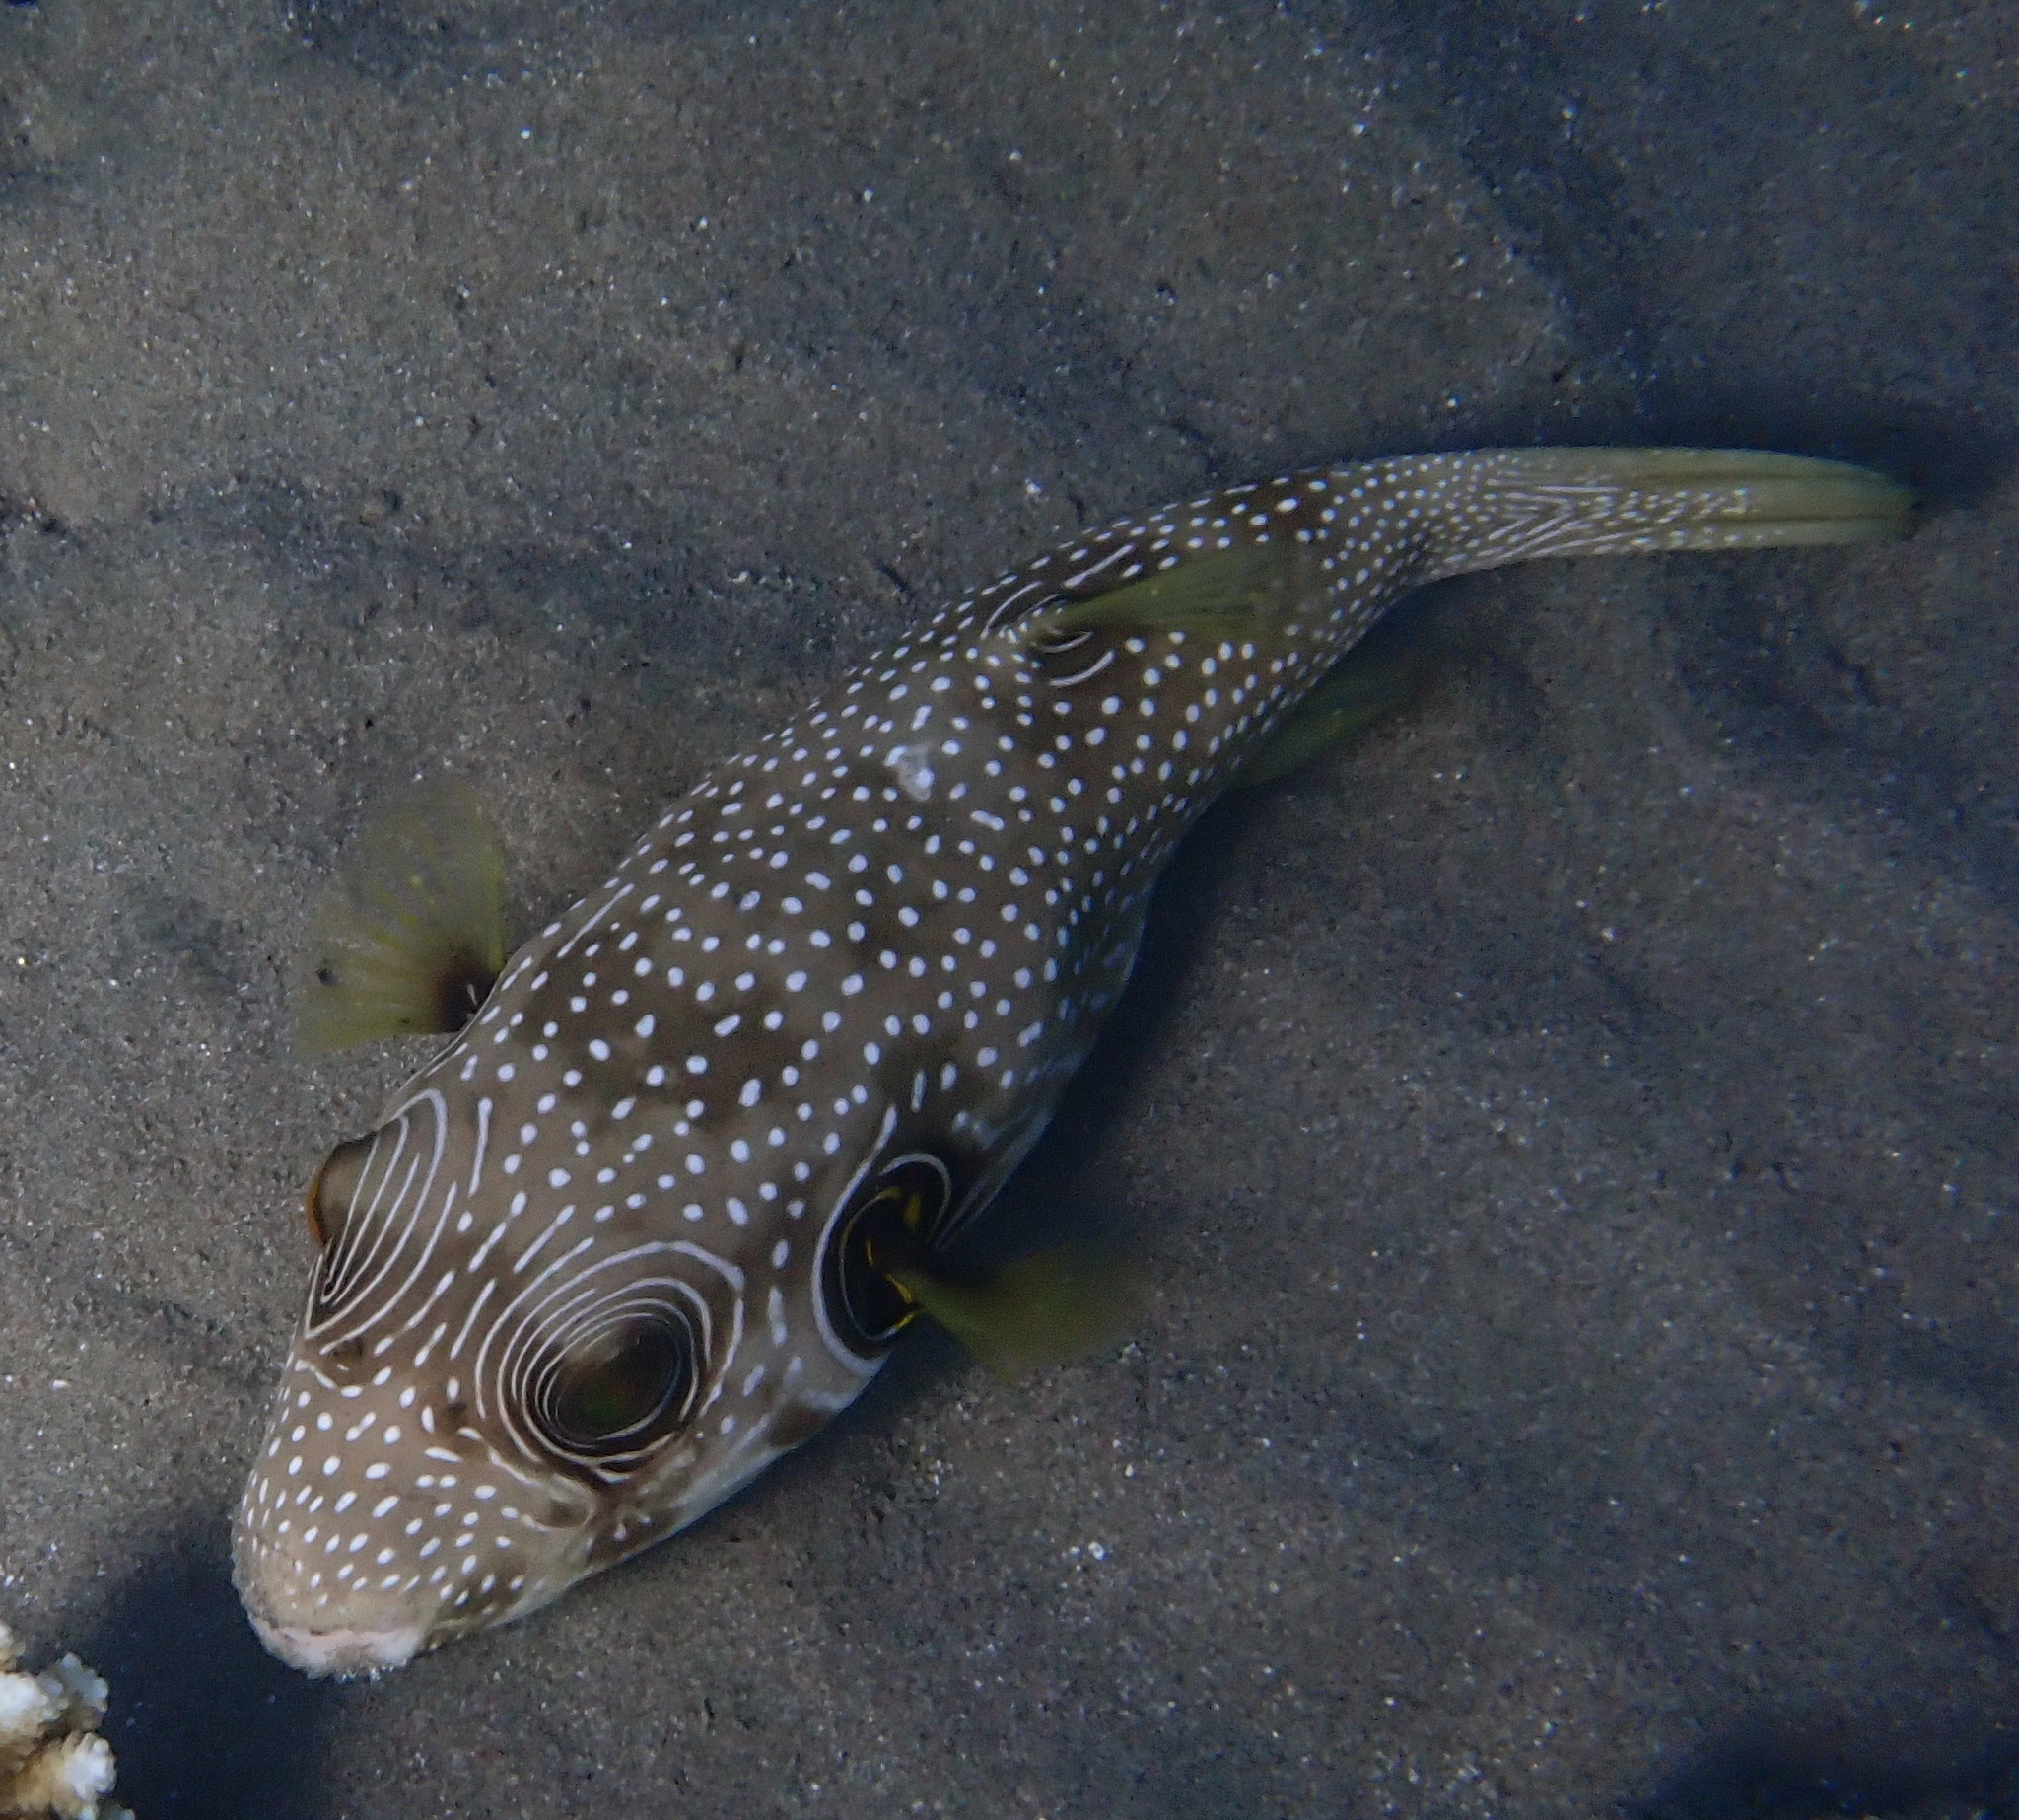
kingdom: Animalia
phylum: Chordata
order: Tetraodontiformes
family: Tetraodontidae
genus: Arothron
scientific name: Arothron hispidus
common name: Stripebelly puffer
